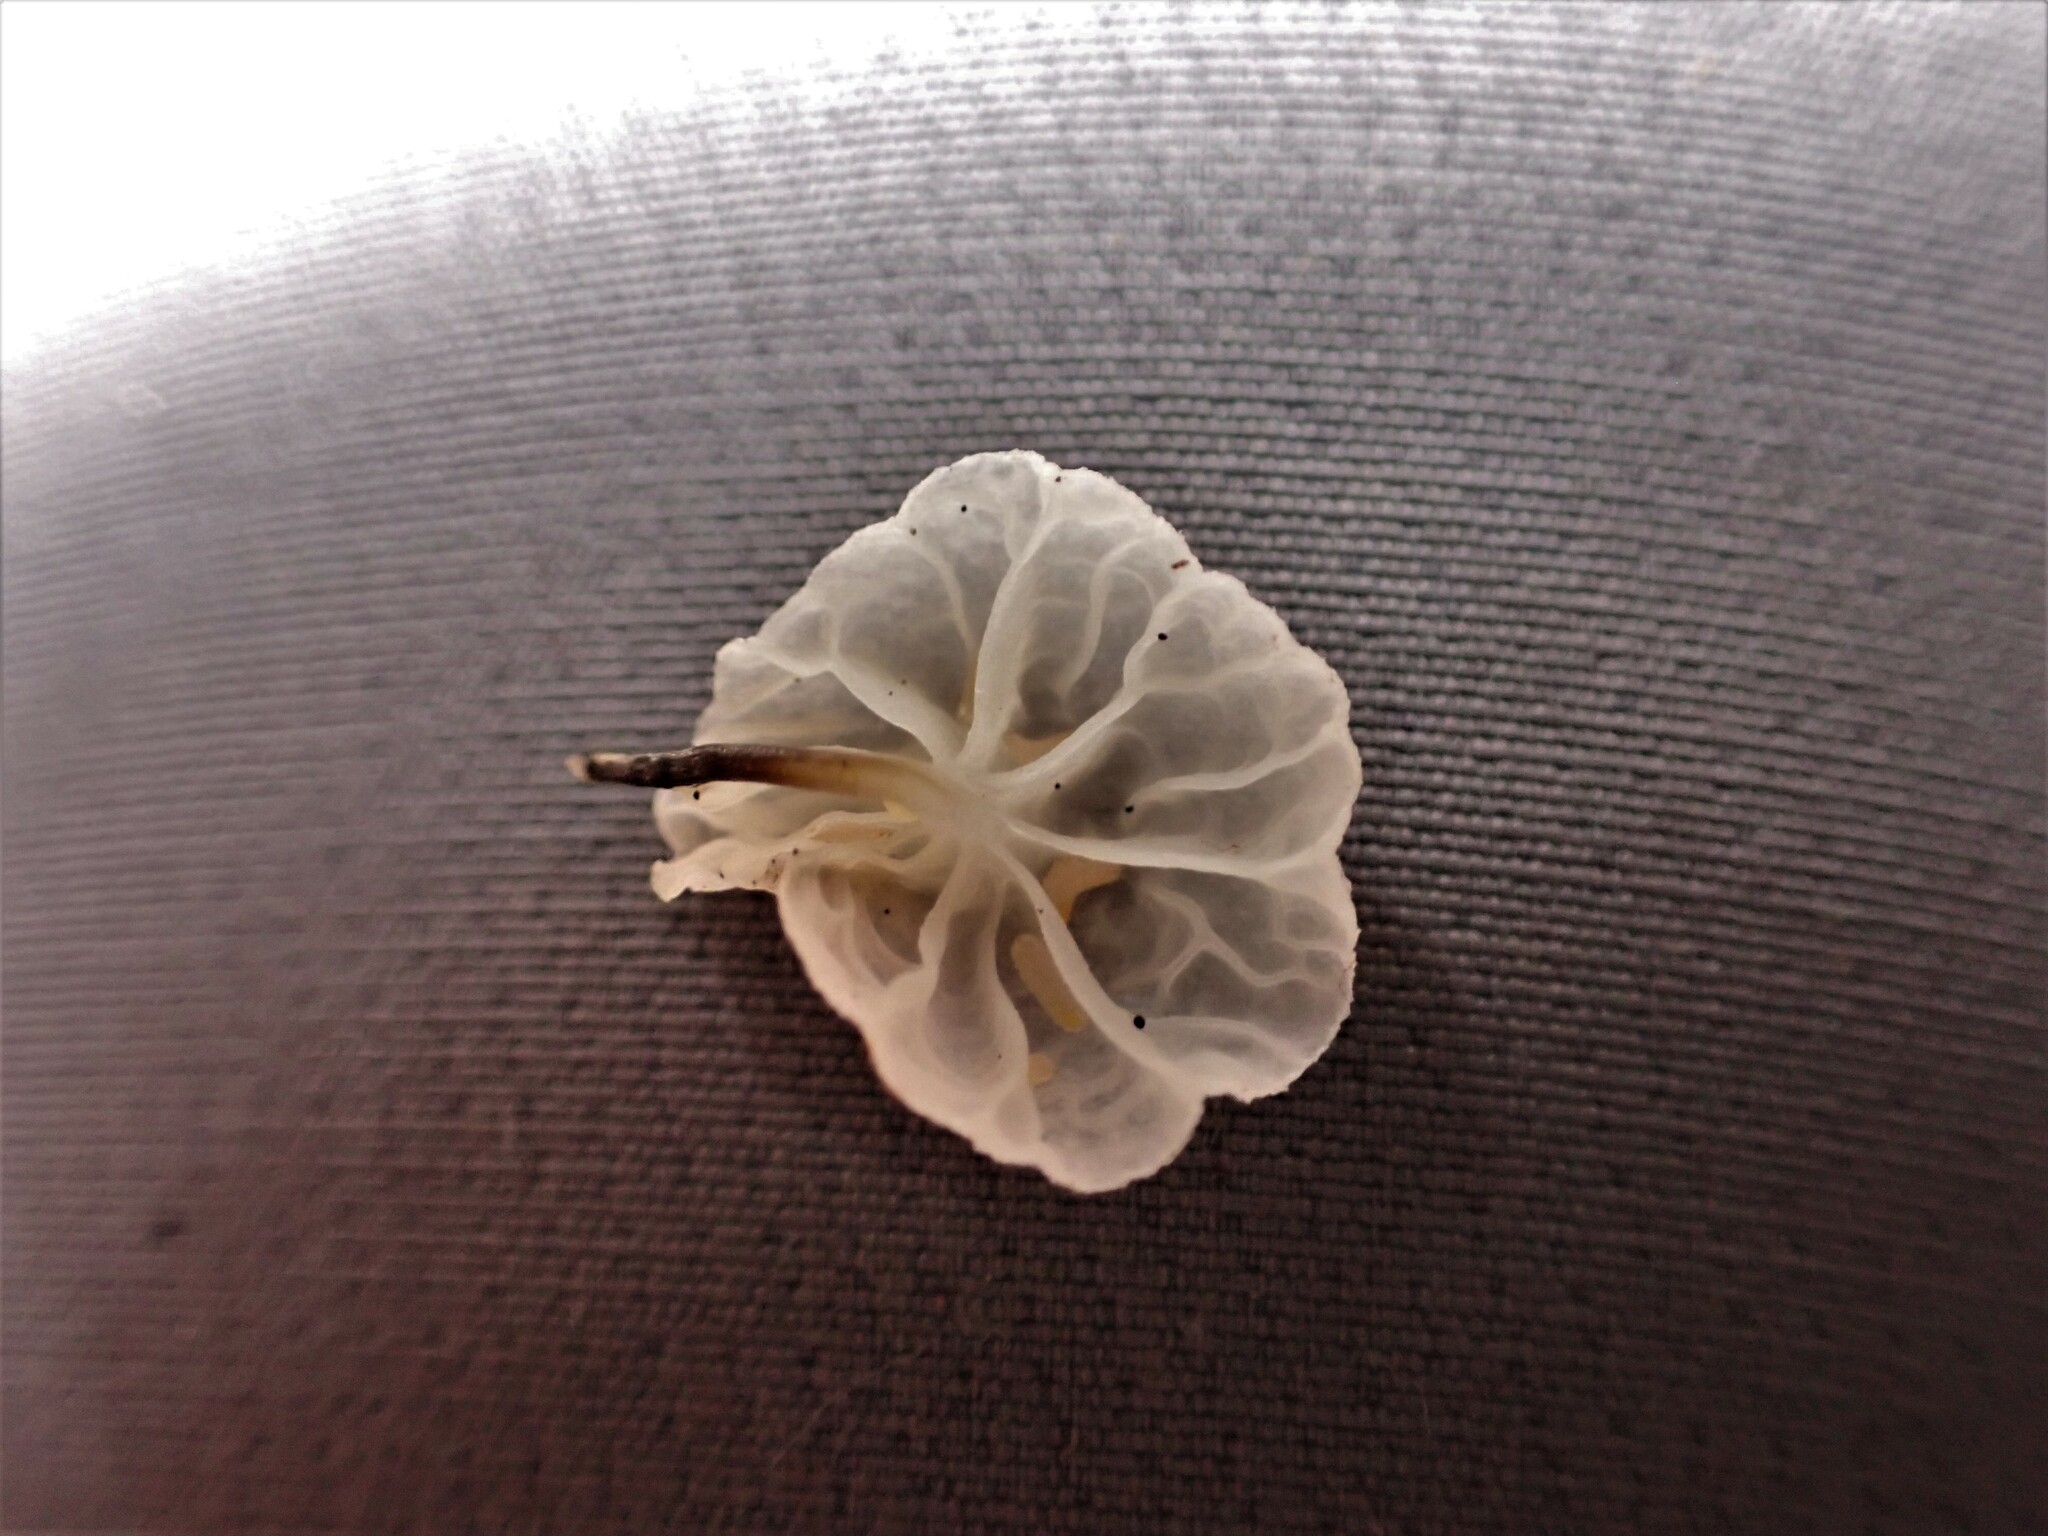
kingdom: Fungi
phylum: Basidiomycota
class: Agaricomycetes
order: Agaricales
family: Marasmiaceae
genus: Campanella
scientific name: Campanella
